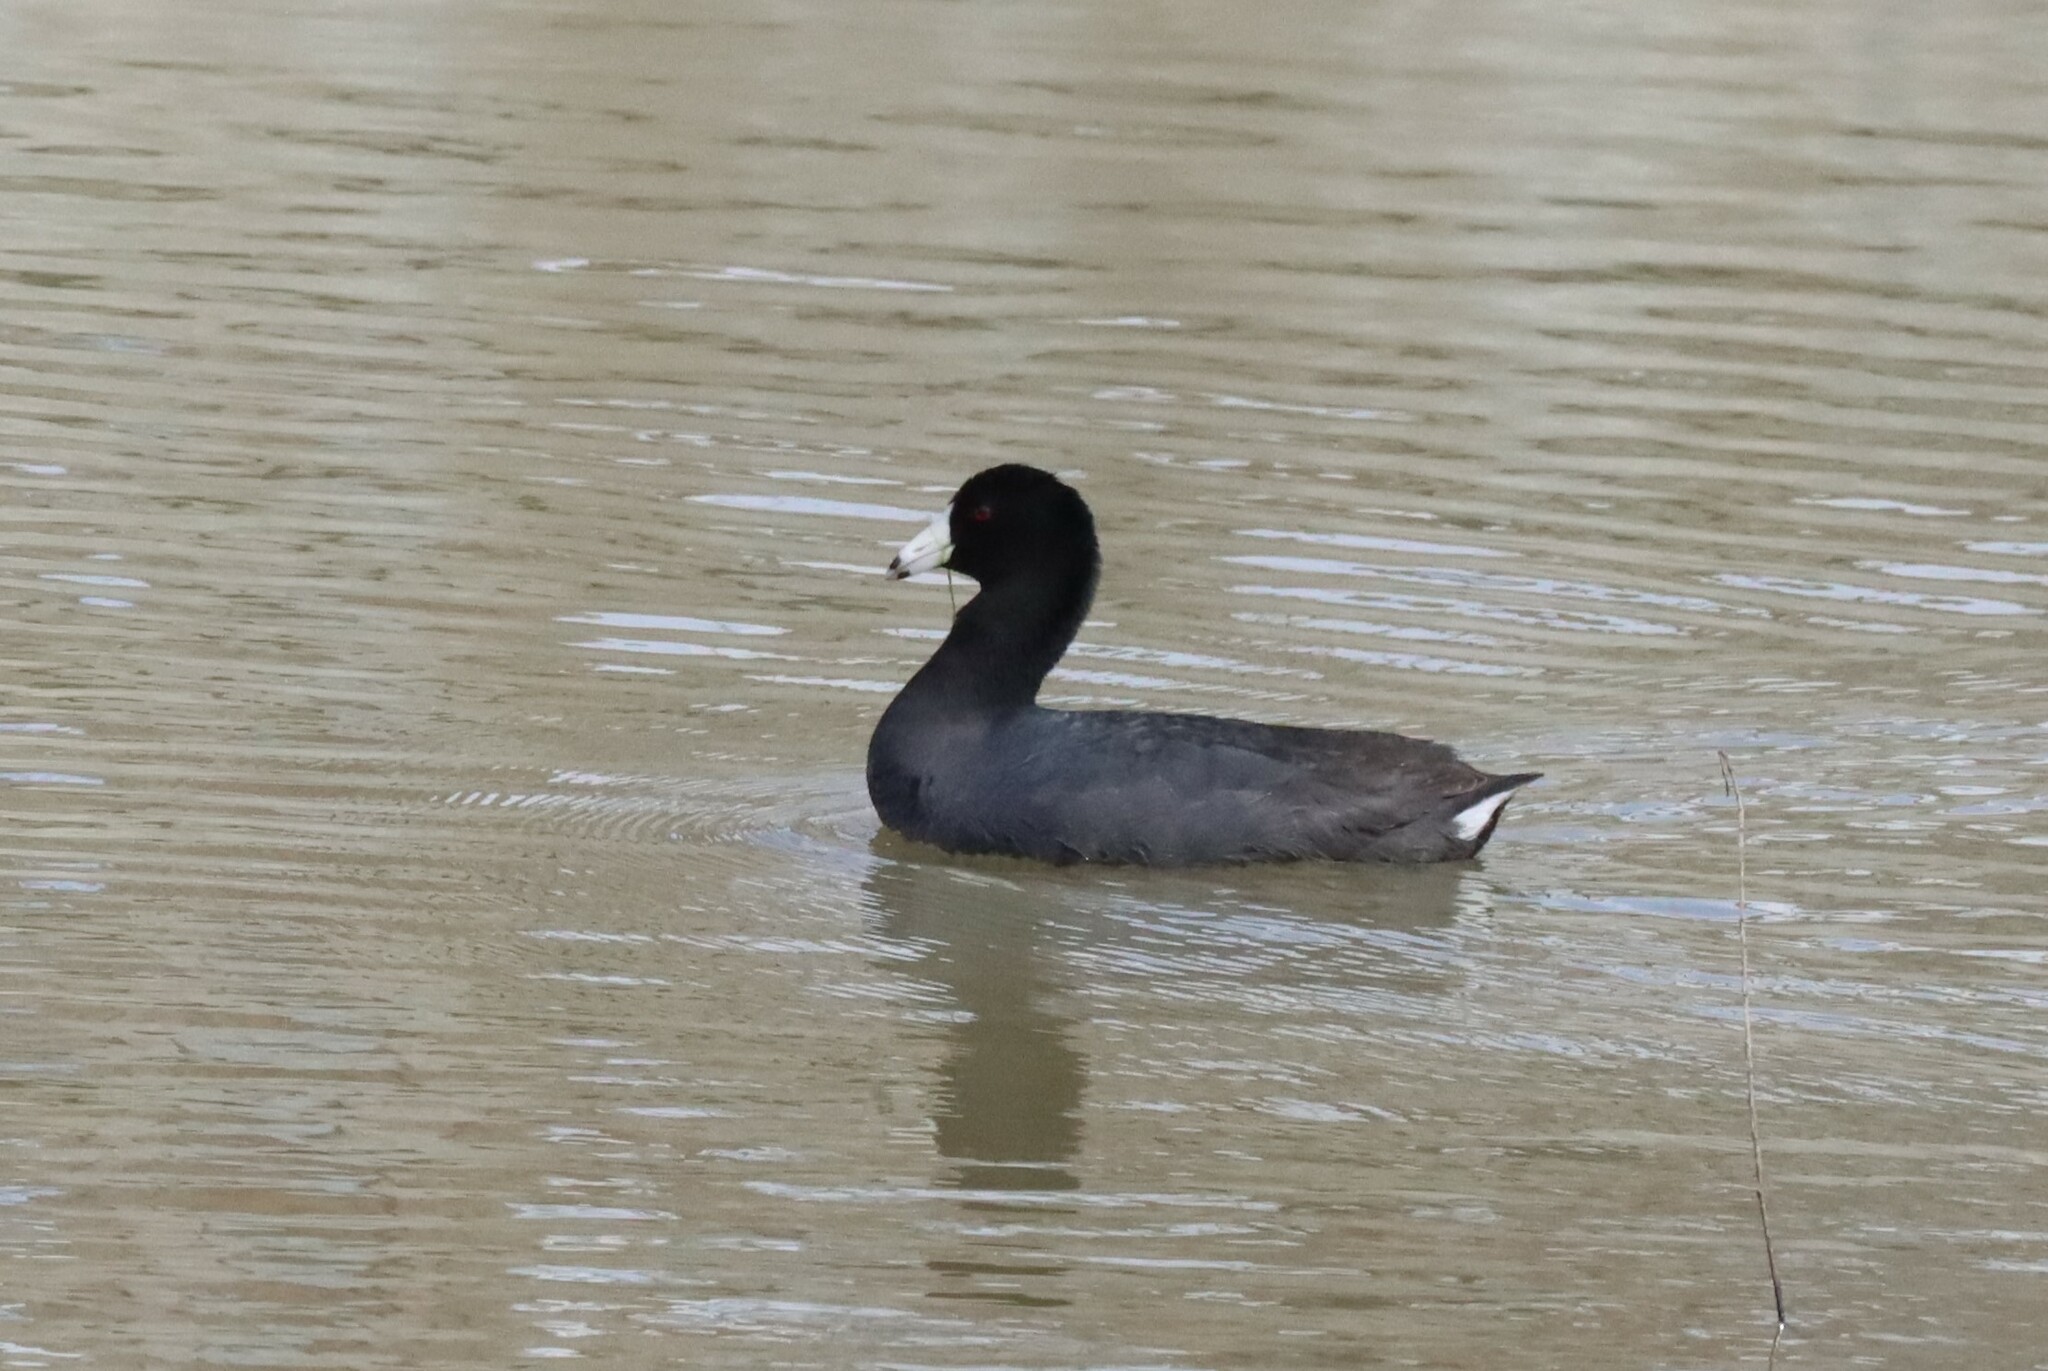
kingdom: Animalia
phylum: Chordata
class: Aves
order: Gruiformes
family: Rallidae
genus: Fulica
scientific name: Fulica americana
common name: American coot
